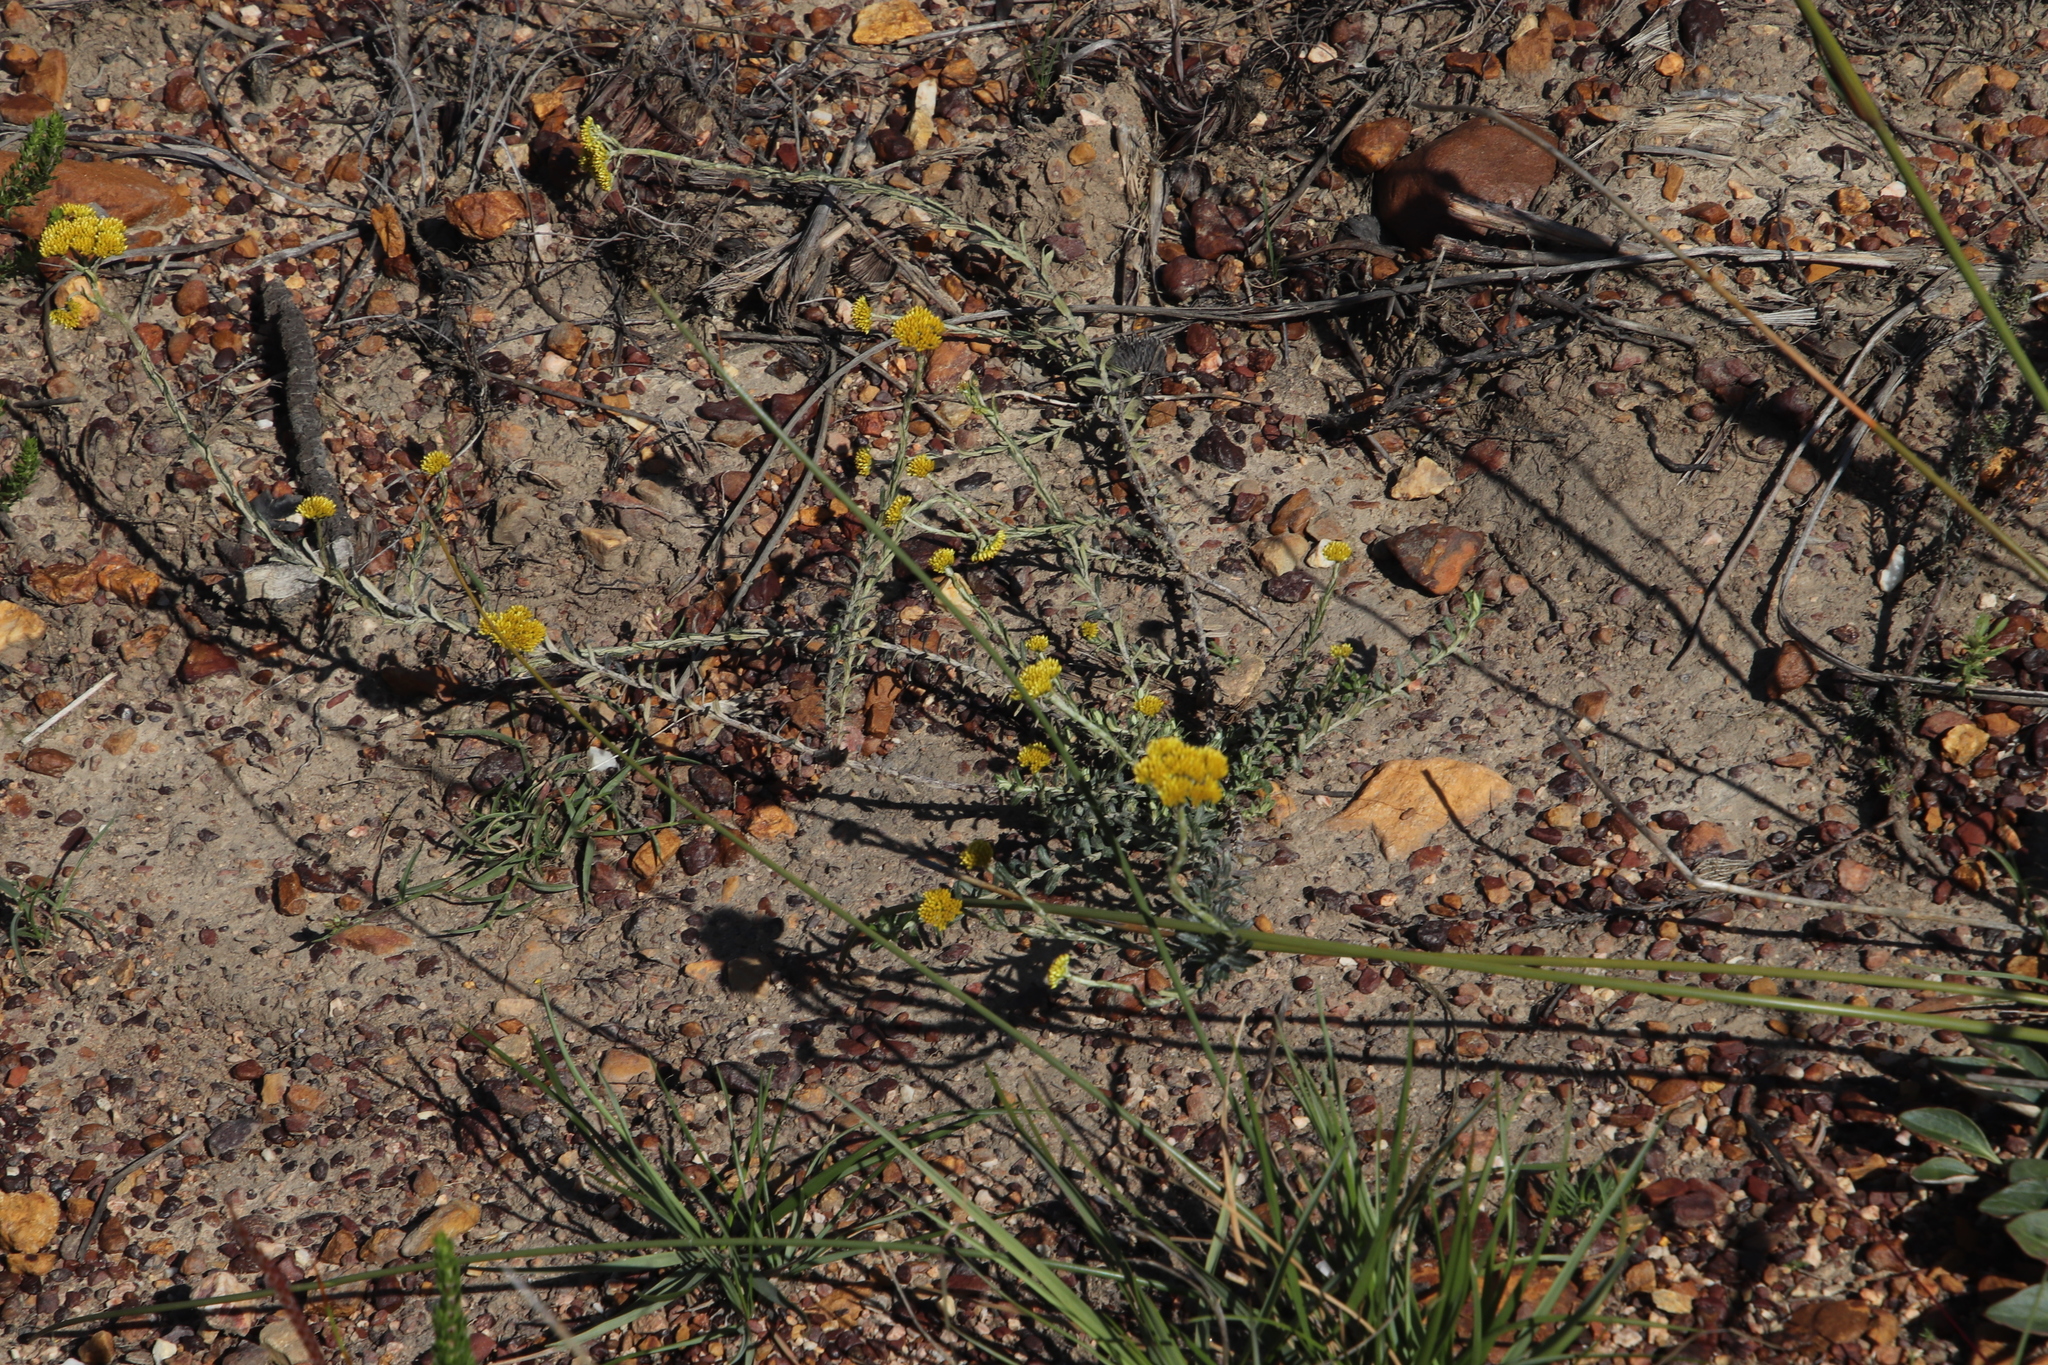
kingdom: Plantae
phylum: Tracheophyta
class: Magnoliopsida
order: Asterales
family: Asteraceae
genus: Helichrysum
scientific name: Helichrysum cymosum
